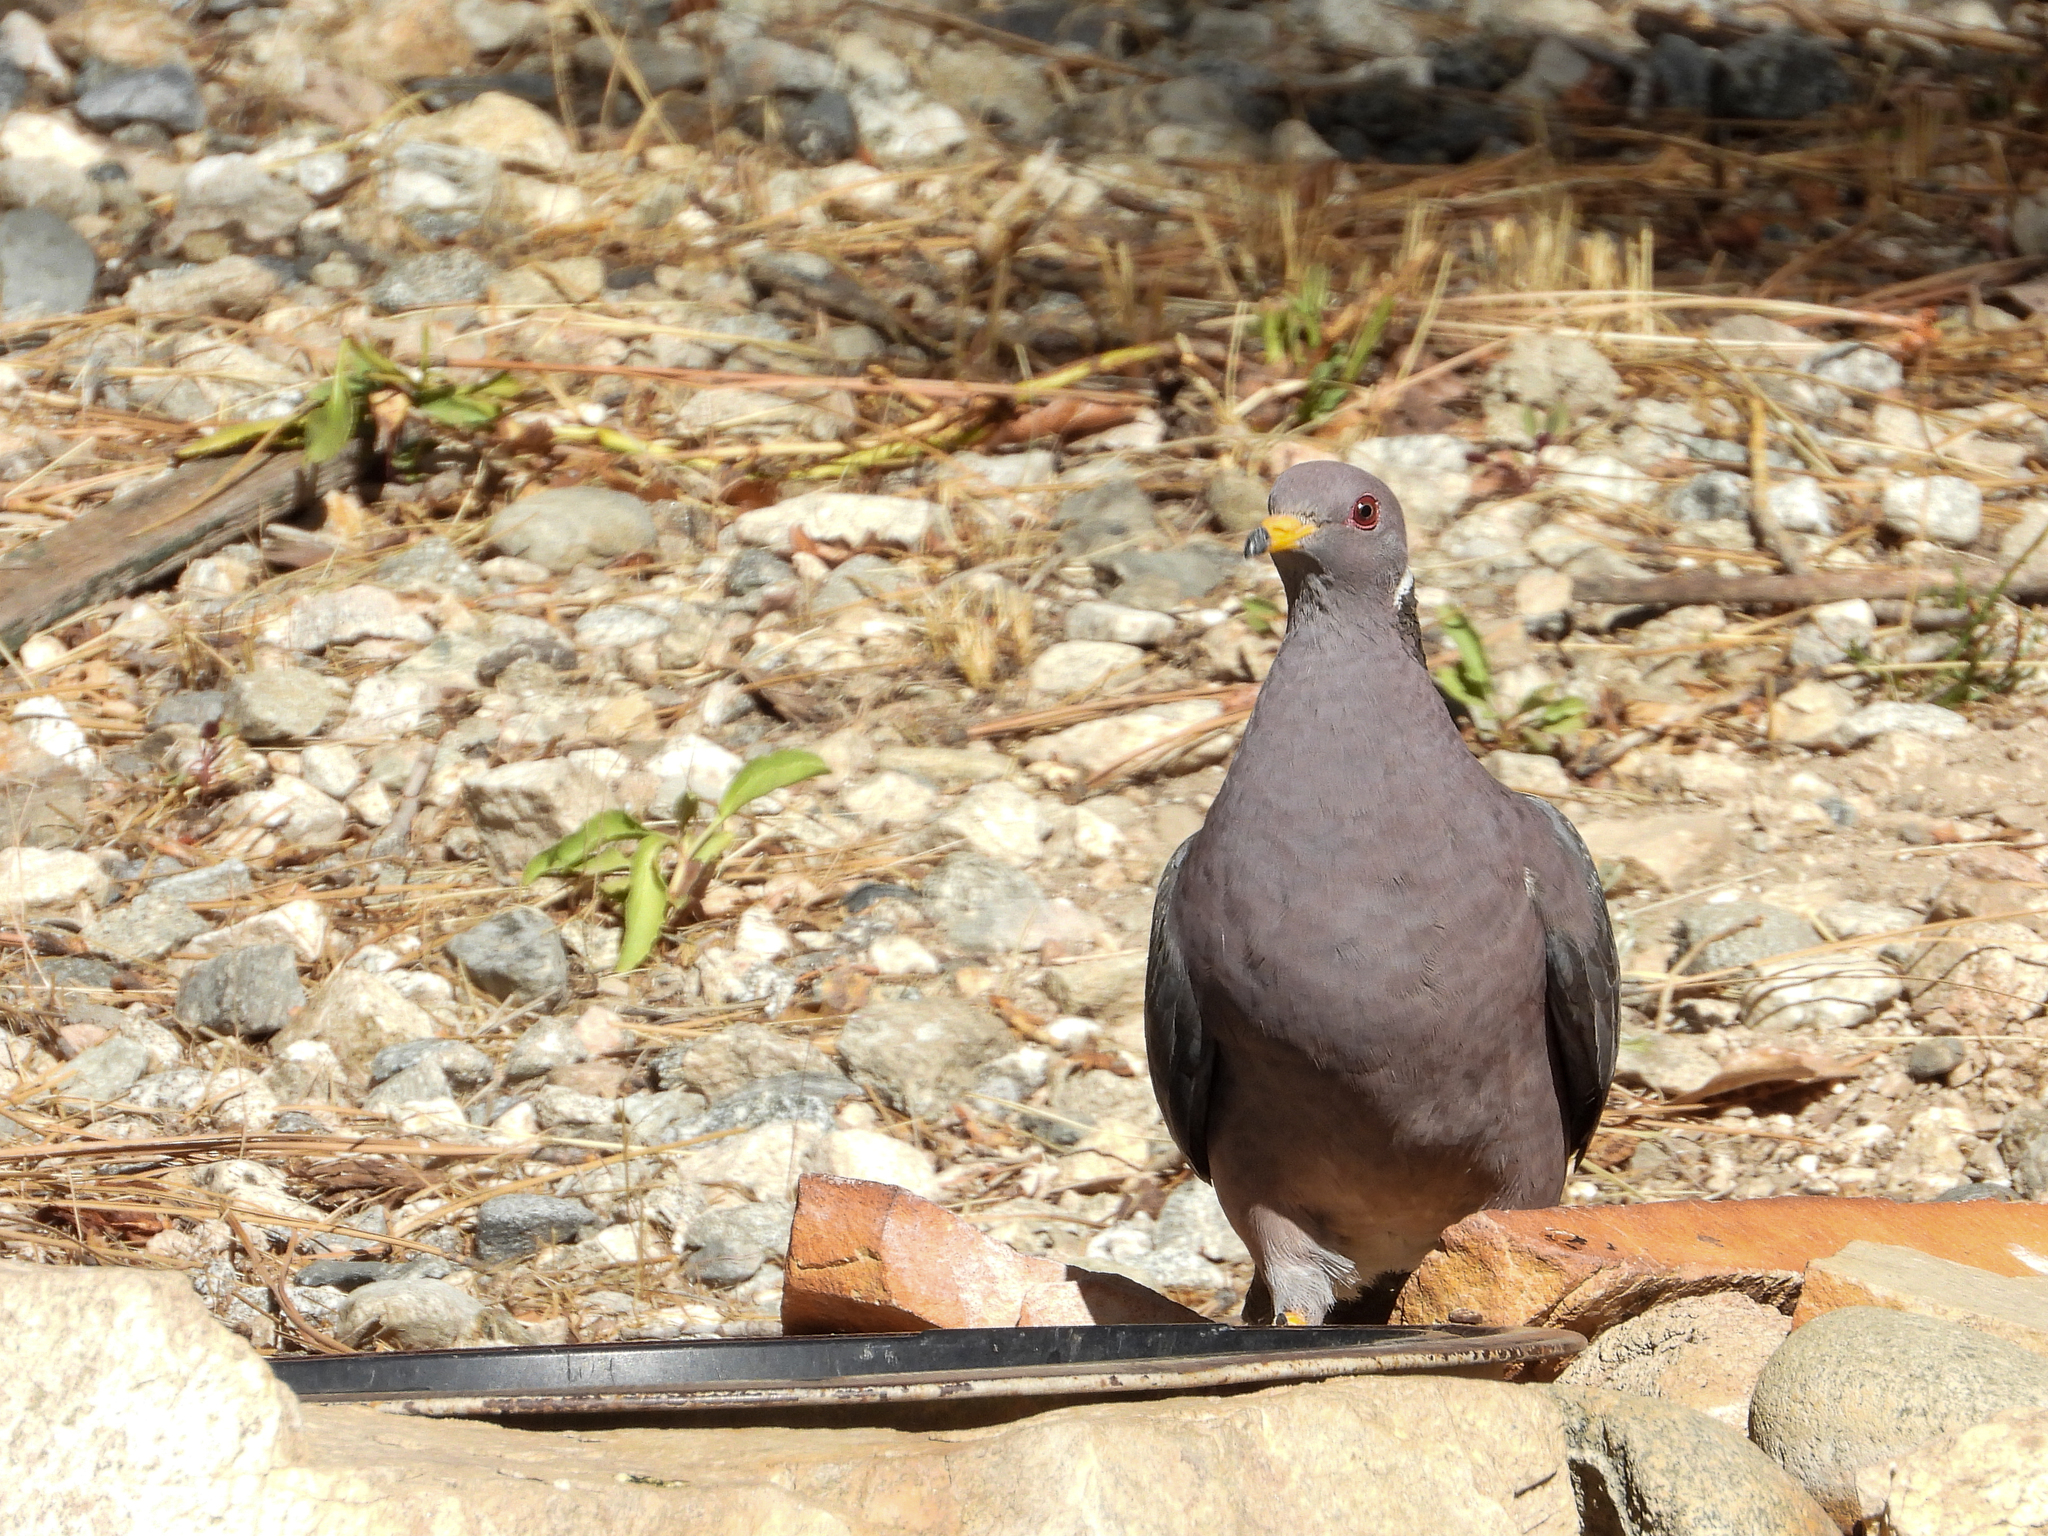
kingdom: Animalia
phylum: Chordata
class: Aves
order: Columbiformes
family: Columbidae
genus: Patagioenas
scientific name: Patagioenas fasciata
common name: Band-tailed pigeon
